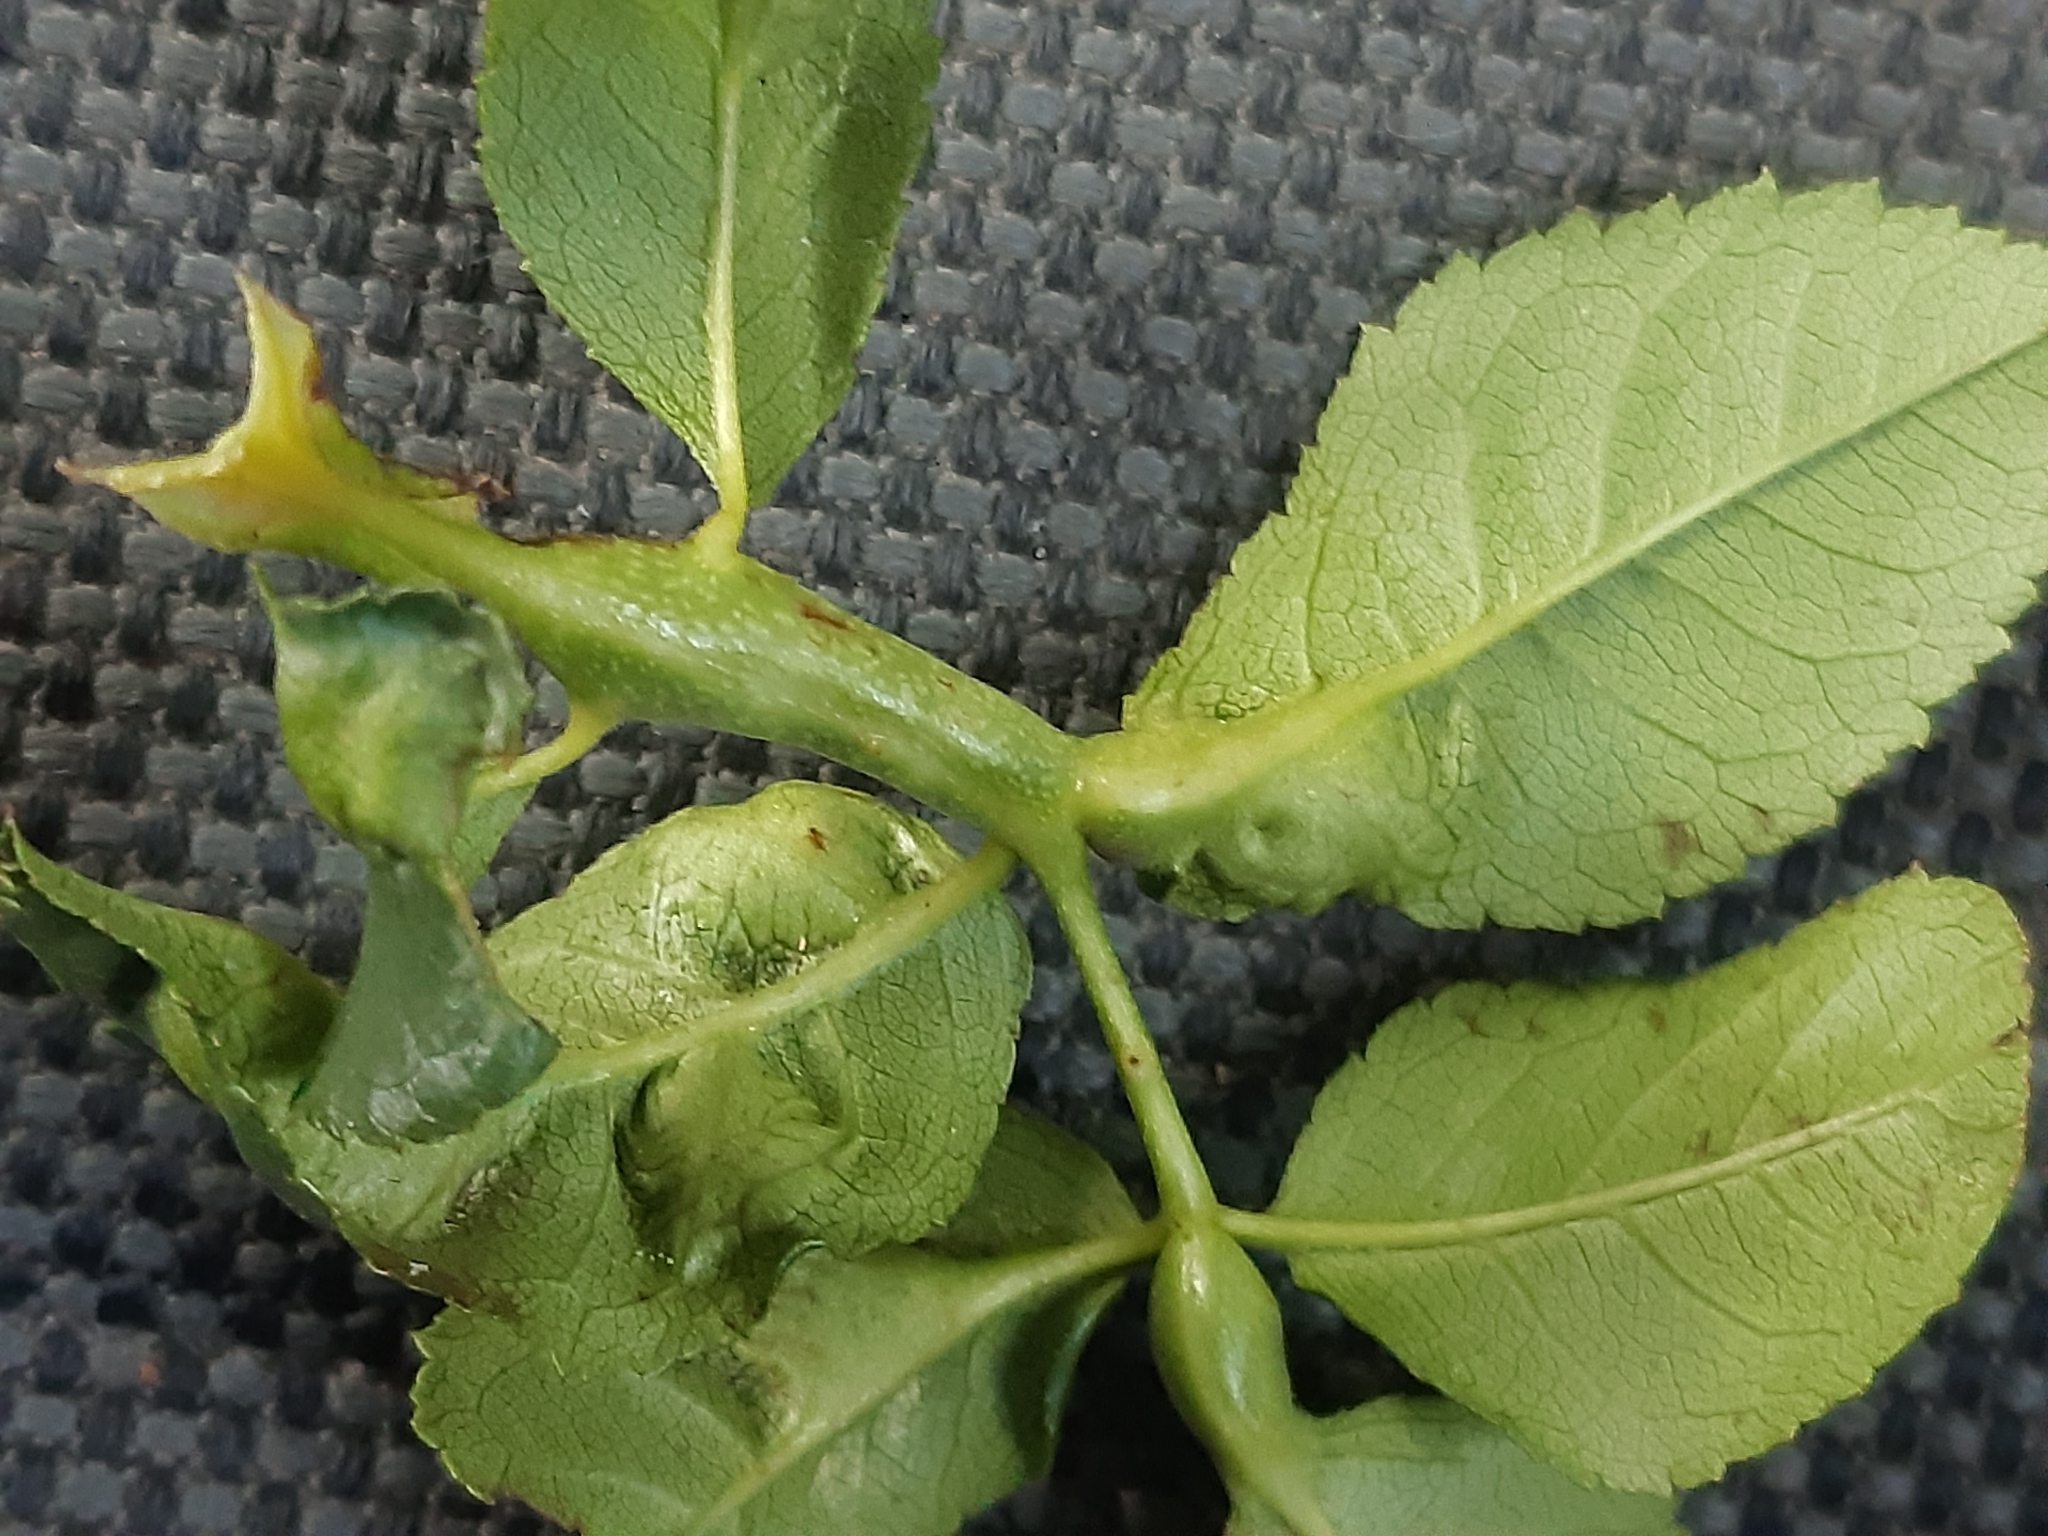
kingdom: Animalia
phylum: Arthropoda
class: Insecta
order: Hymenoptera
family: Cynipidae
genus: Diplolepis
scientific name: Diplolepis spinosissimae
